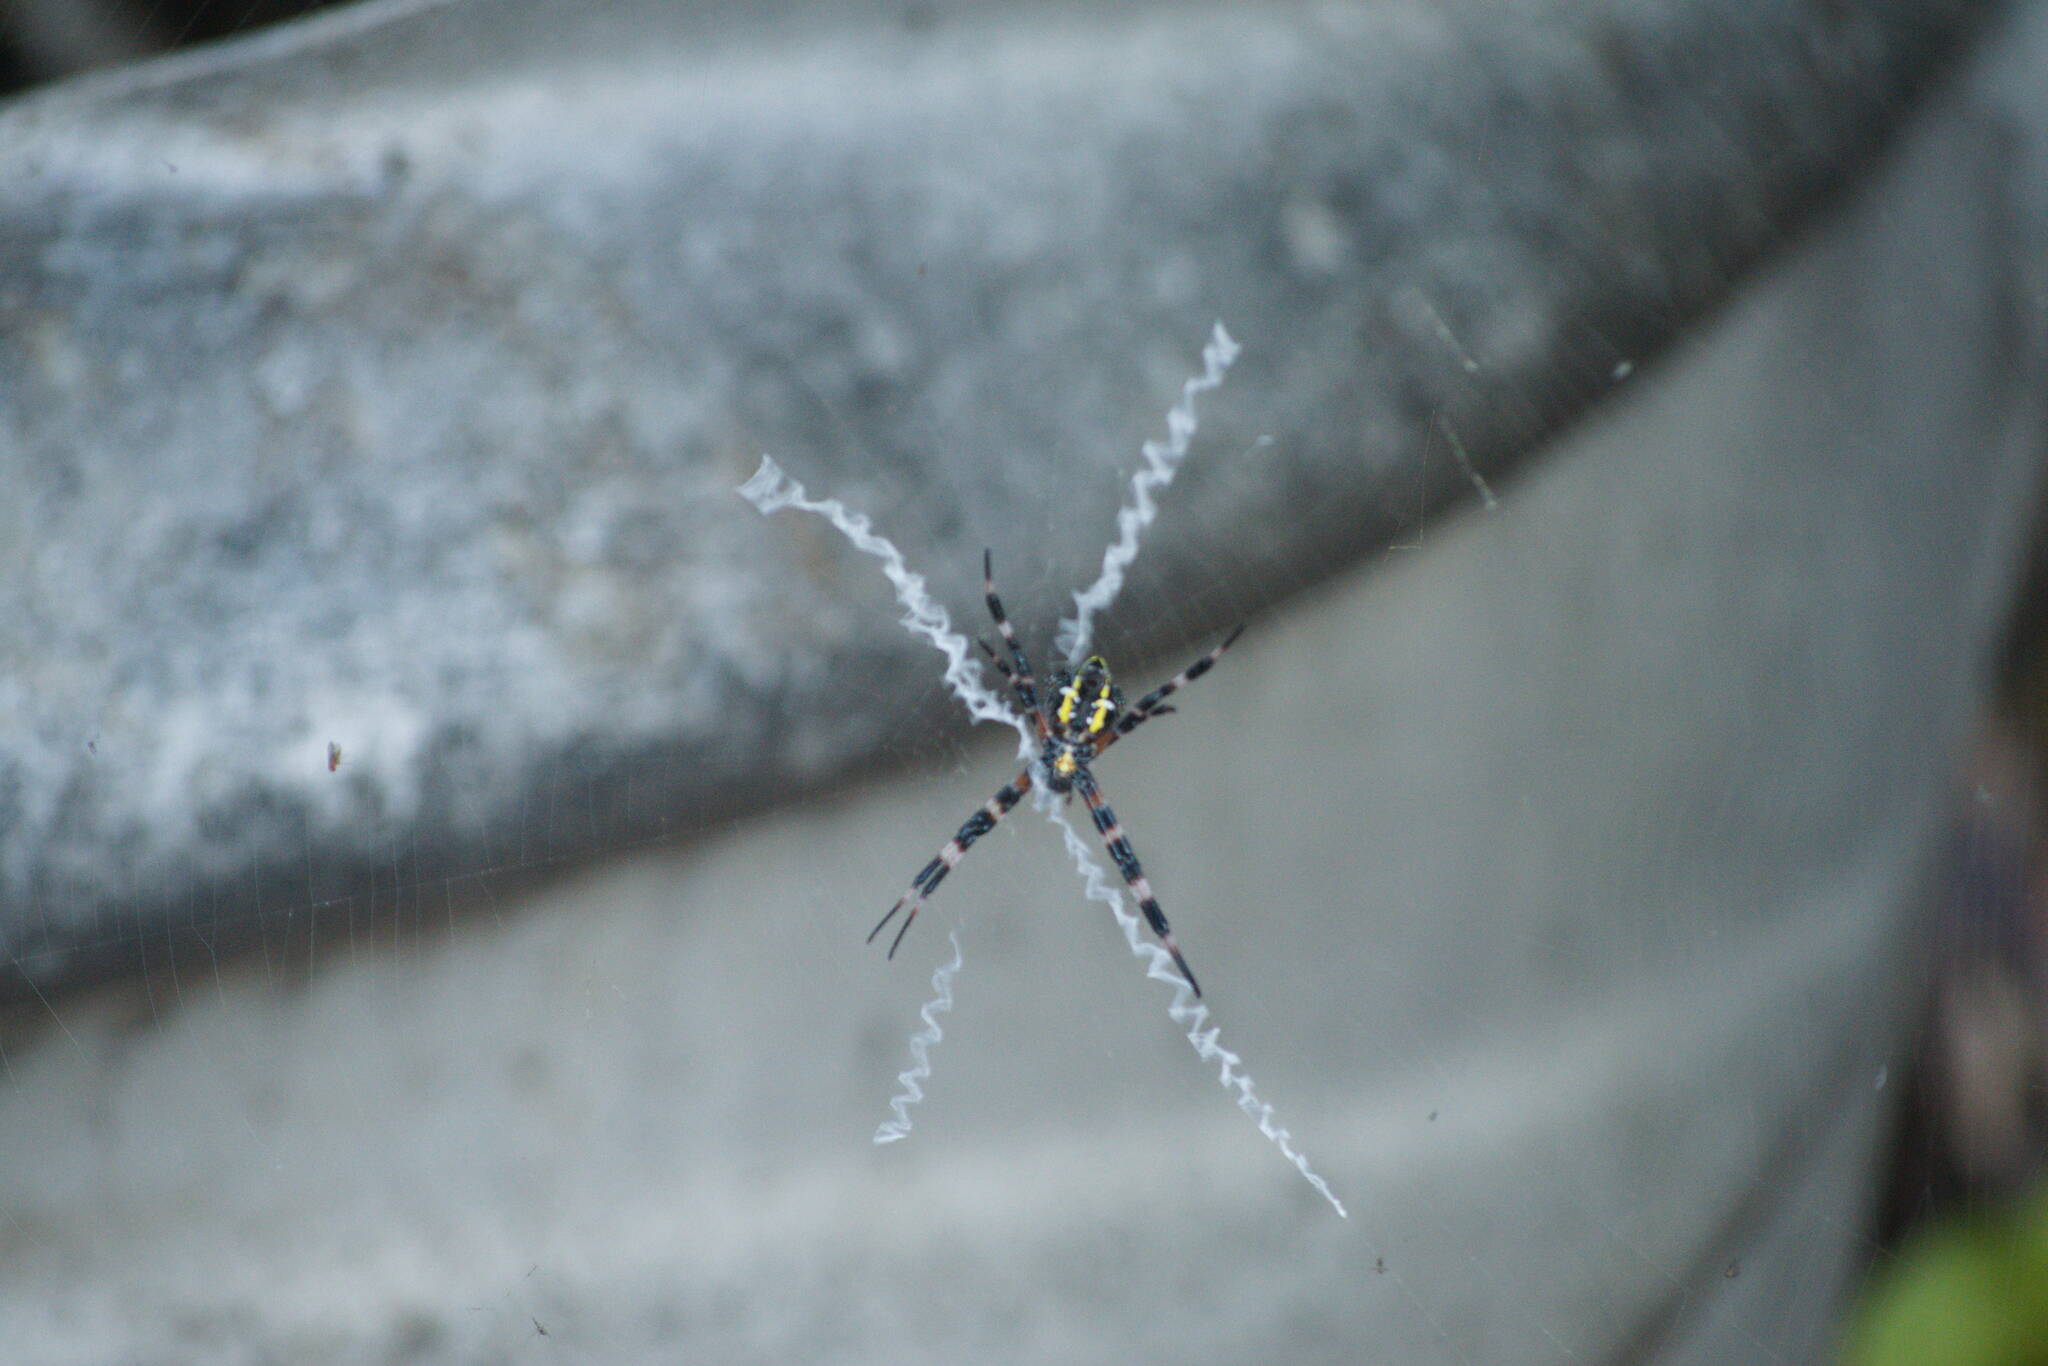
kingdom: Animalia
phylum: Arthropoda
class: Arachnida
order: Araneae
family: Araneidae
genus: Argiope
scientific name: Argiope appensa
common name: Garden spider
